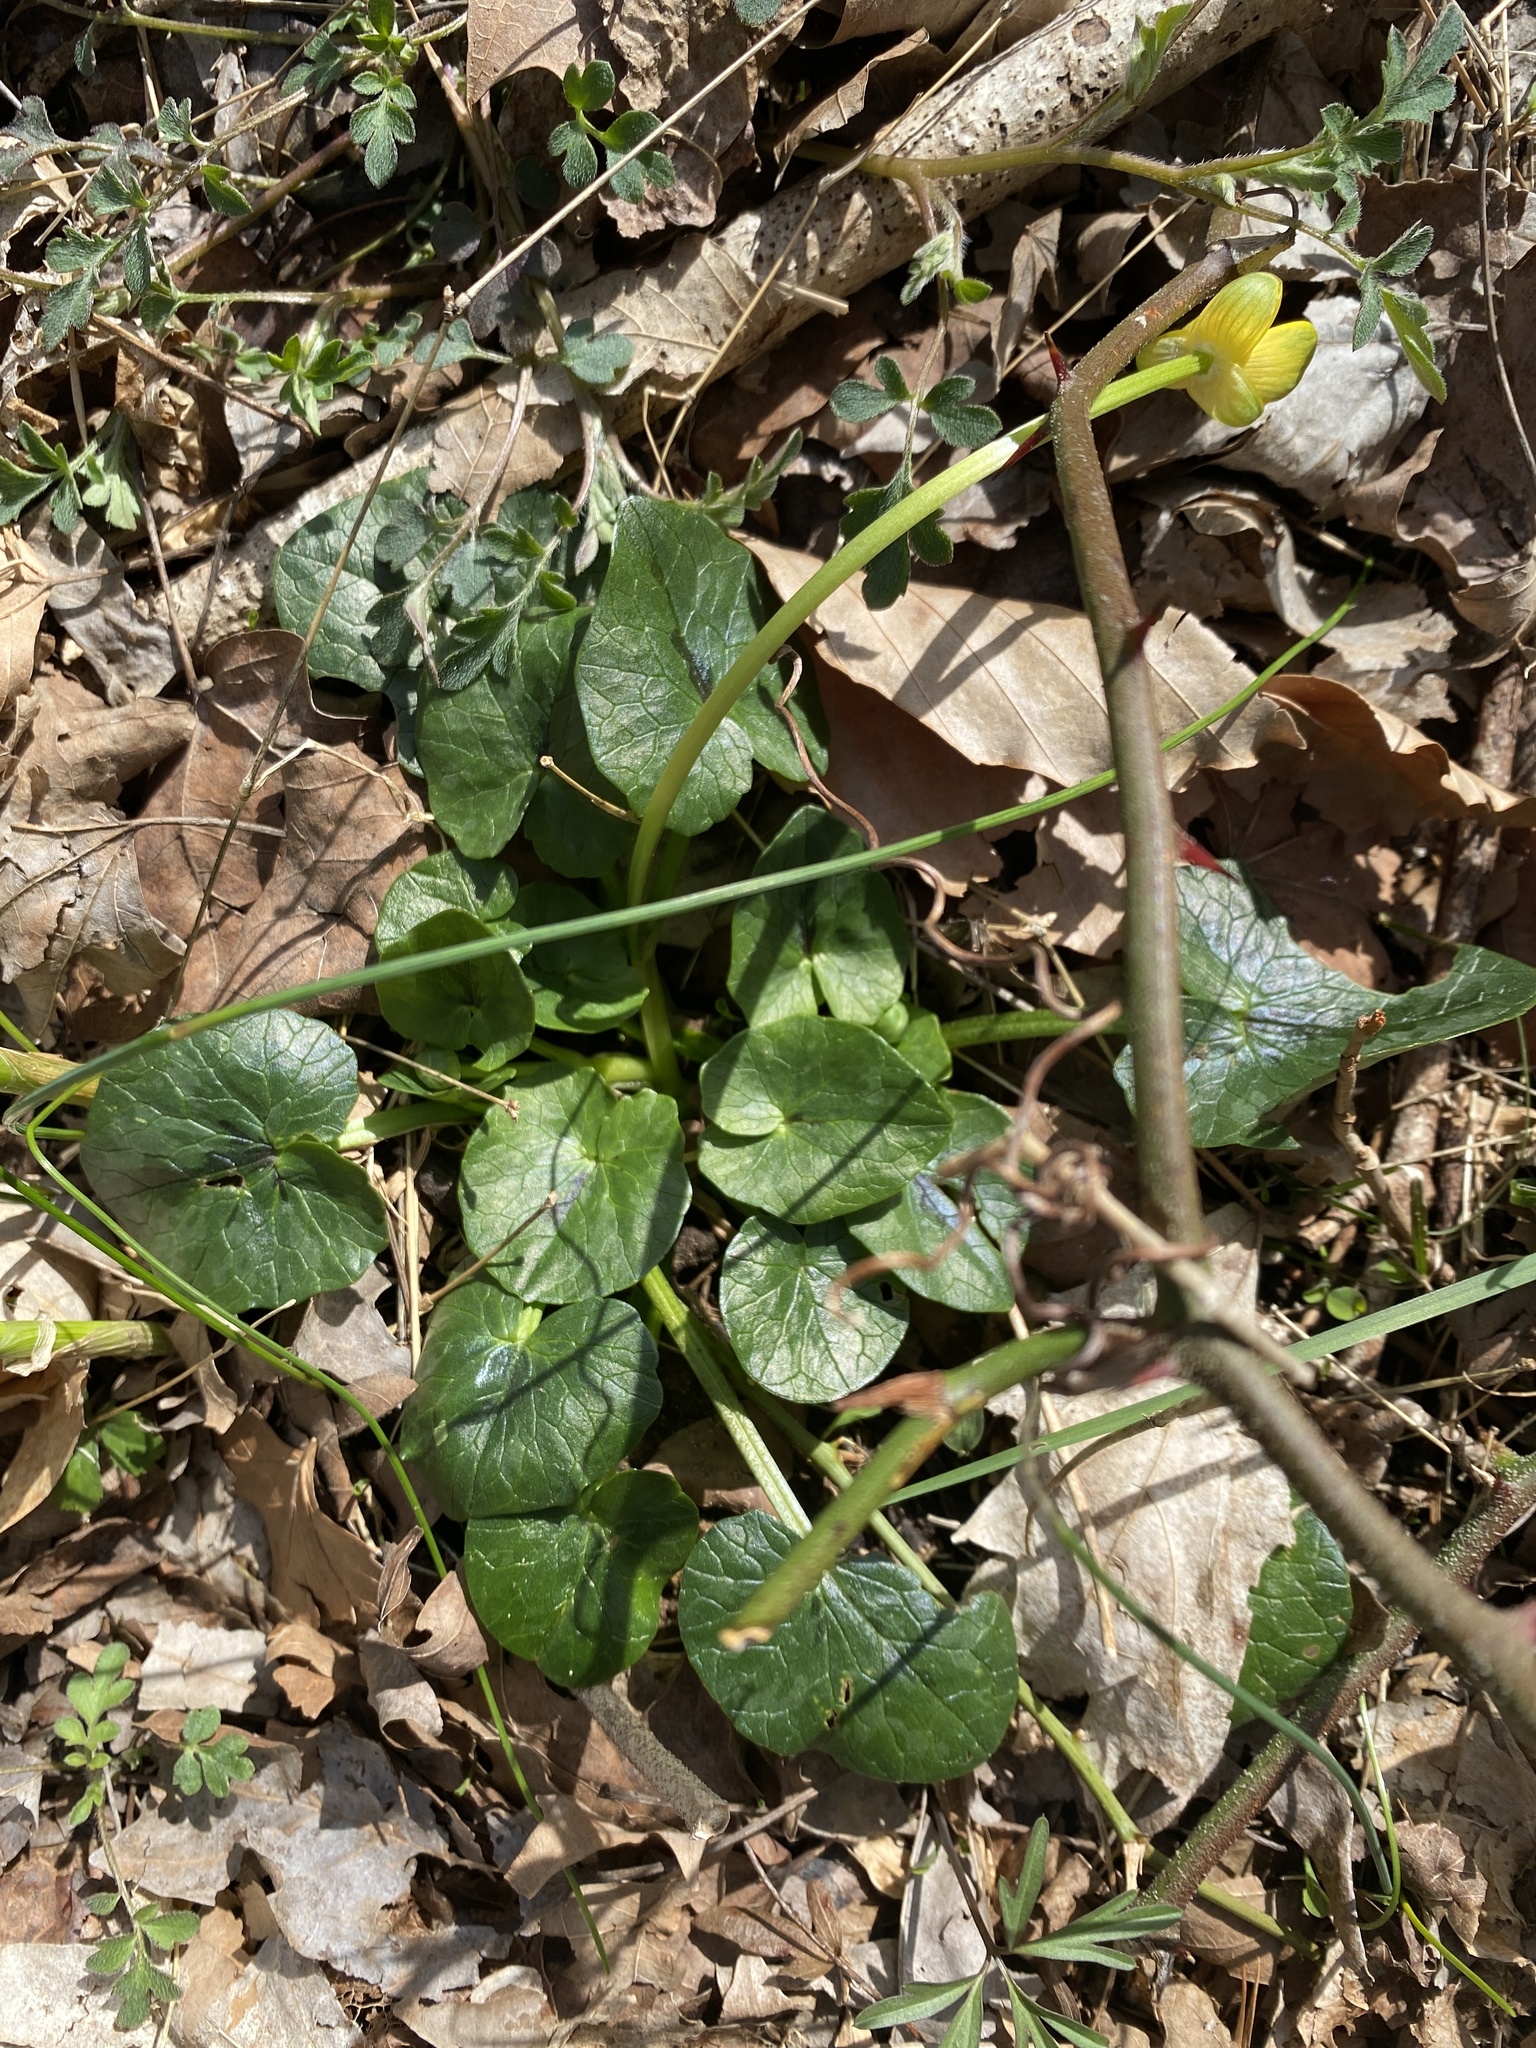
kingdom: Plantae
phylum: Tracheophyta
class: Magnoliopsida
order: Ranunculales
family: Ranunculaceae
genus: Ficaria
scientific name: Ficaria verna
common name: Lesser celandine
